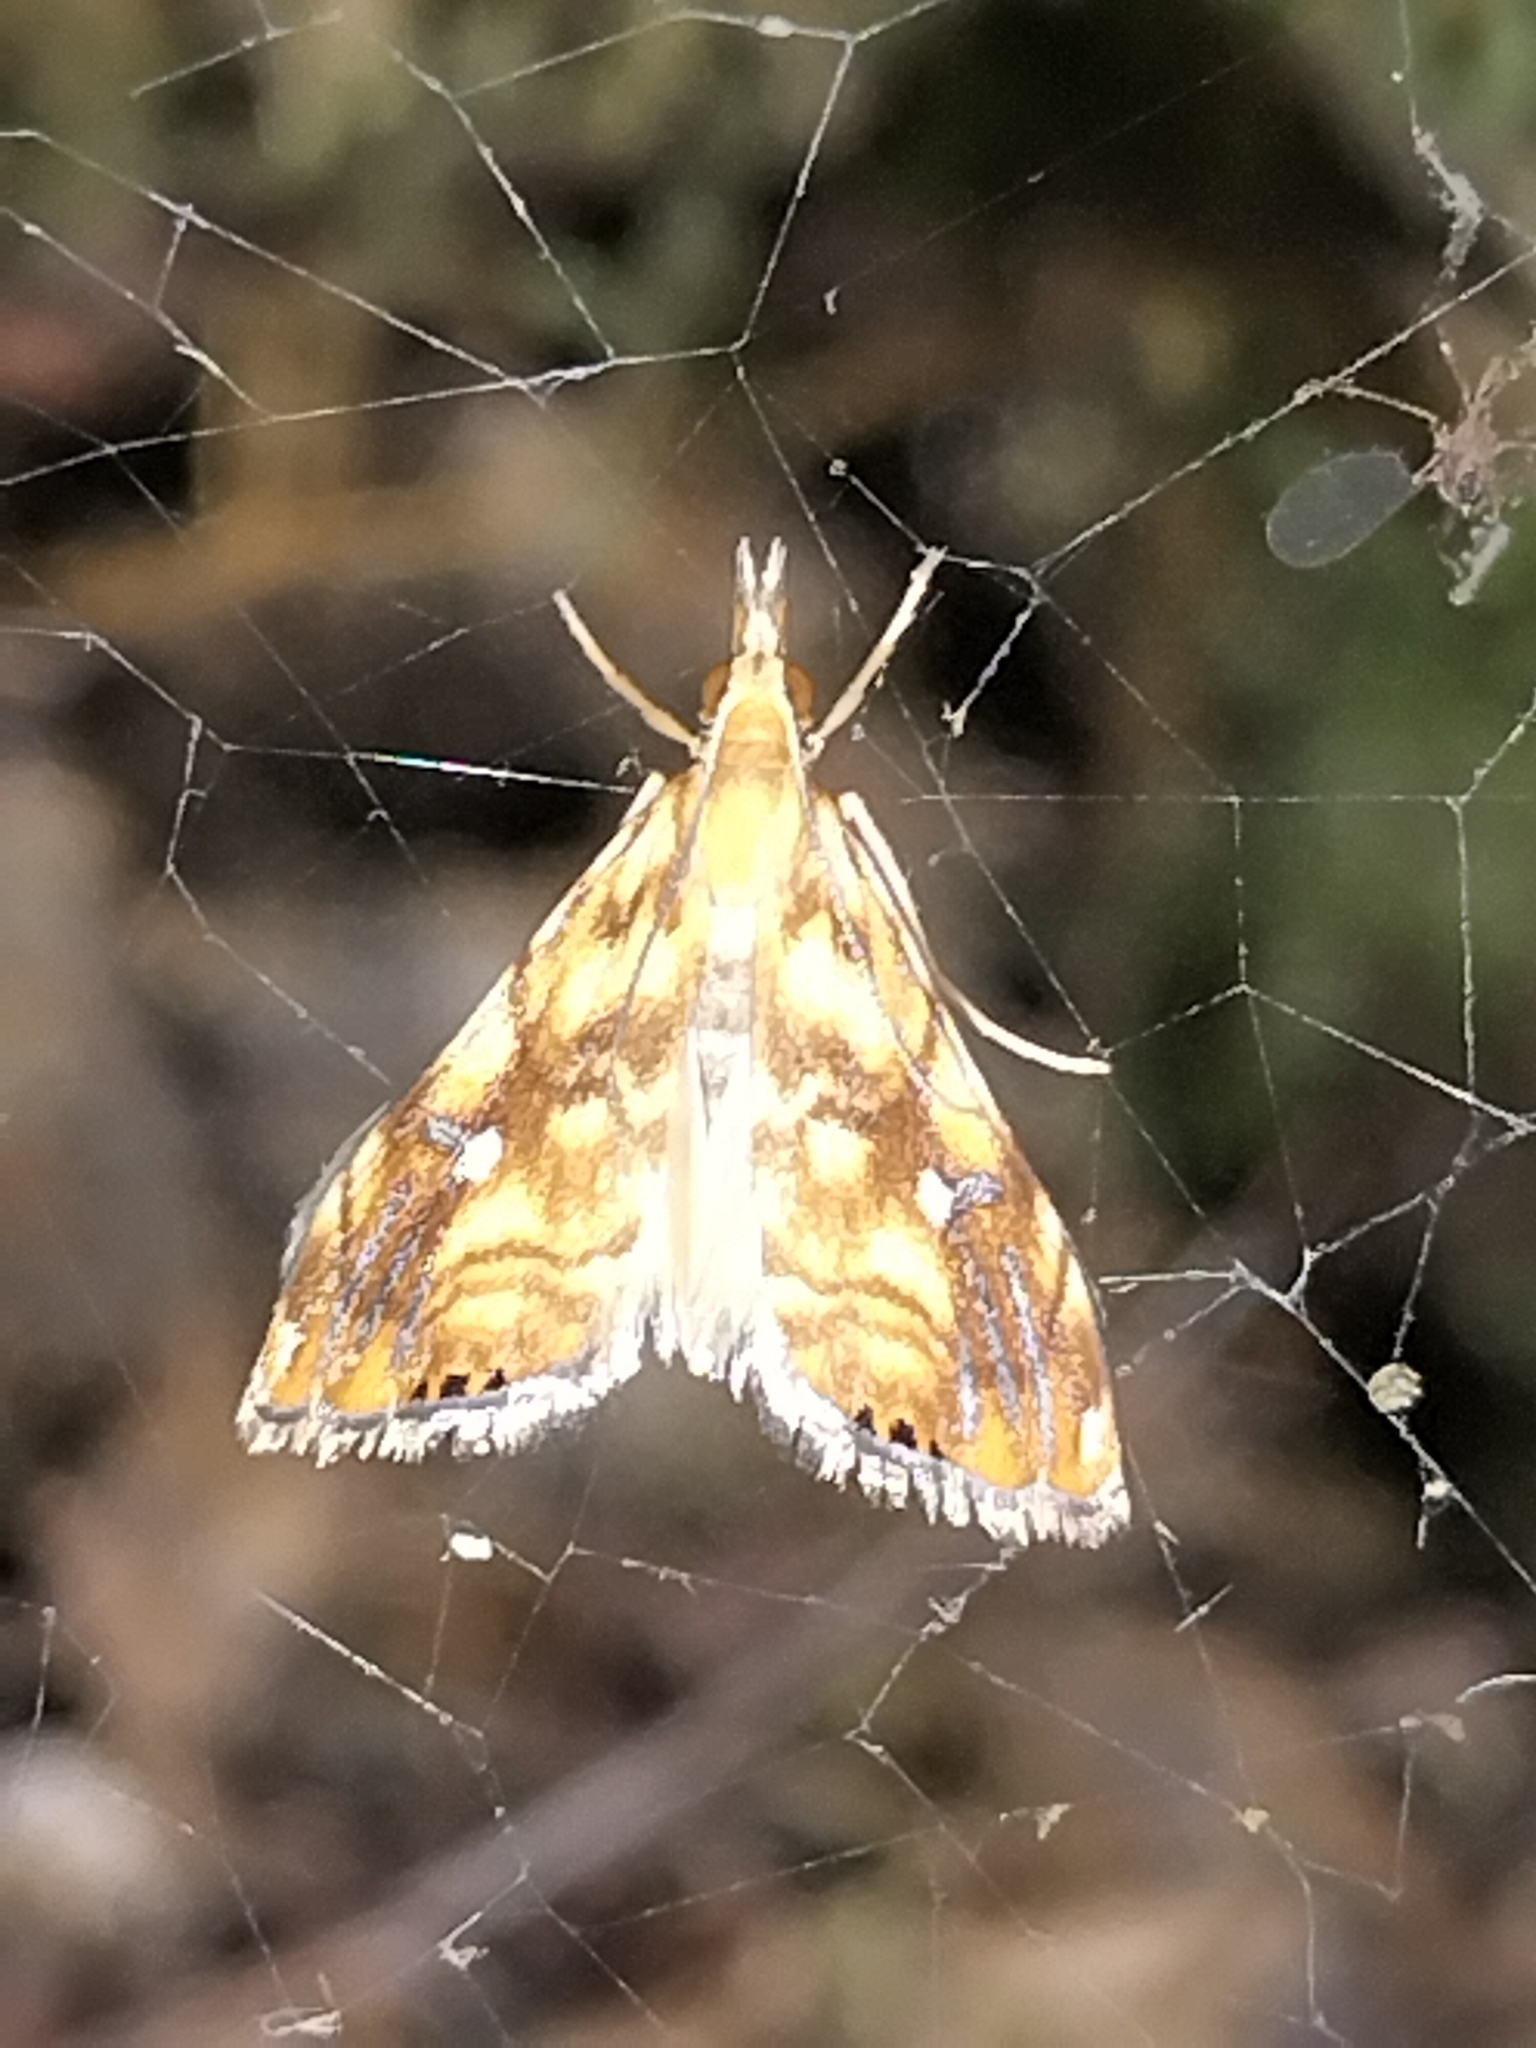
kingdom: Animalia
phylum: Arthropoda
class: Insecta
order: Lepidoptera
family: Crambidae
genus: Glaucocharis
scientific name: Glaucocharis selenaea
